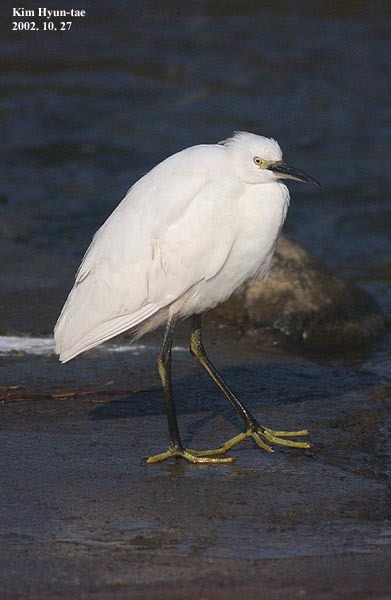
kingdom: Animalia
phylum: Chordata
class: Aves
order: Pelecaniformes
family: Ardeidae
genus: Egretta
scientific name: Egretta garzetta
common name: Little egret
